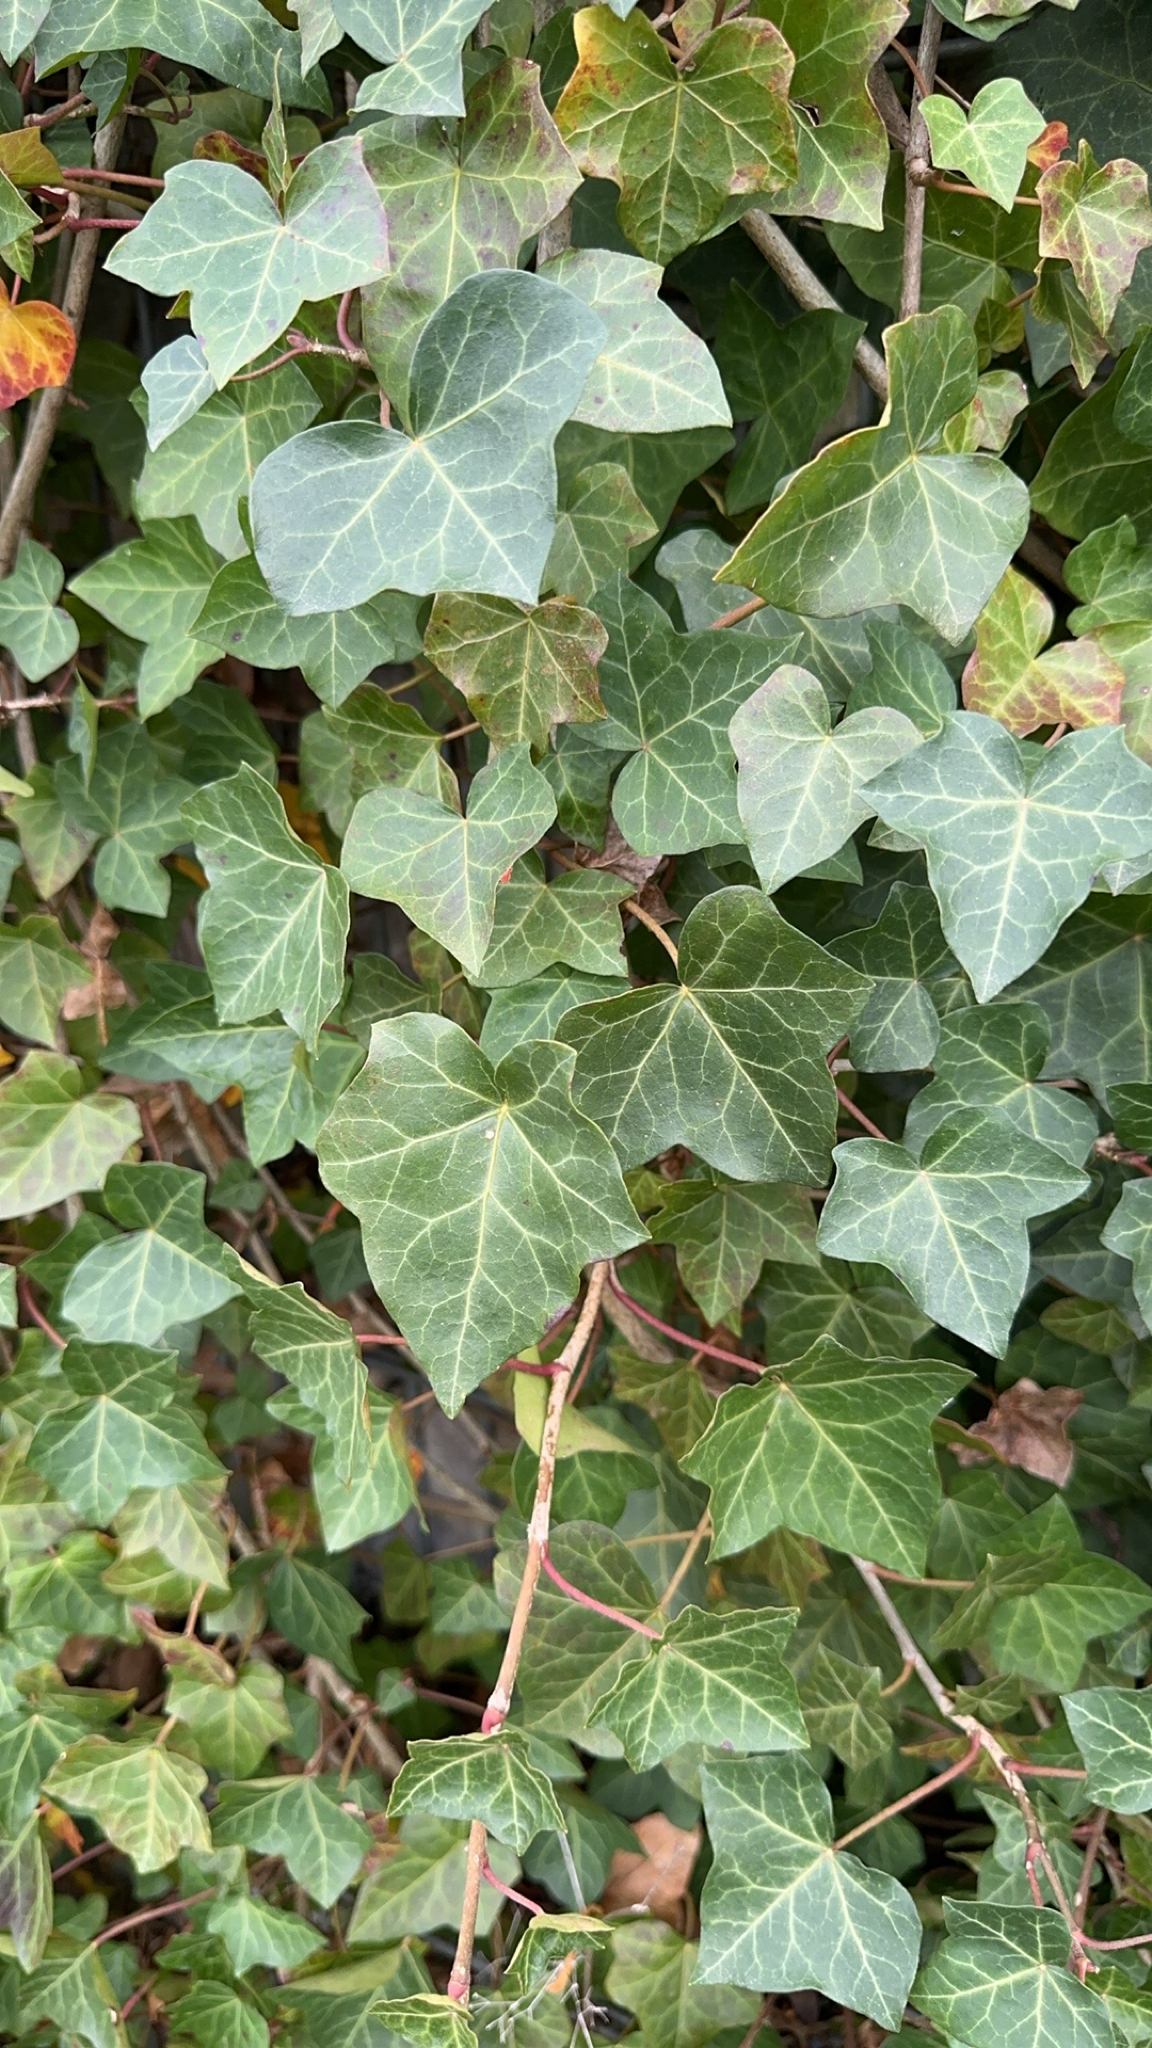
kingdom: Plantae
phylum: Tracheophyta
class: Magnoliopsida
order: Apiales
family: Araliaceae
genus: Hedera
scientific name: Hedera helix
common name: Ivy
